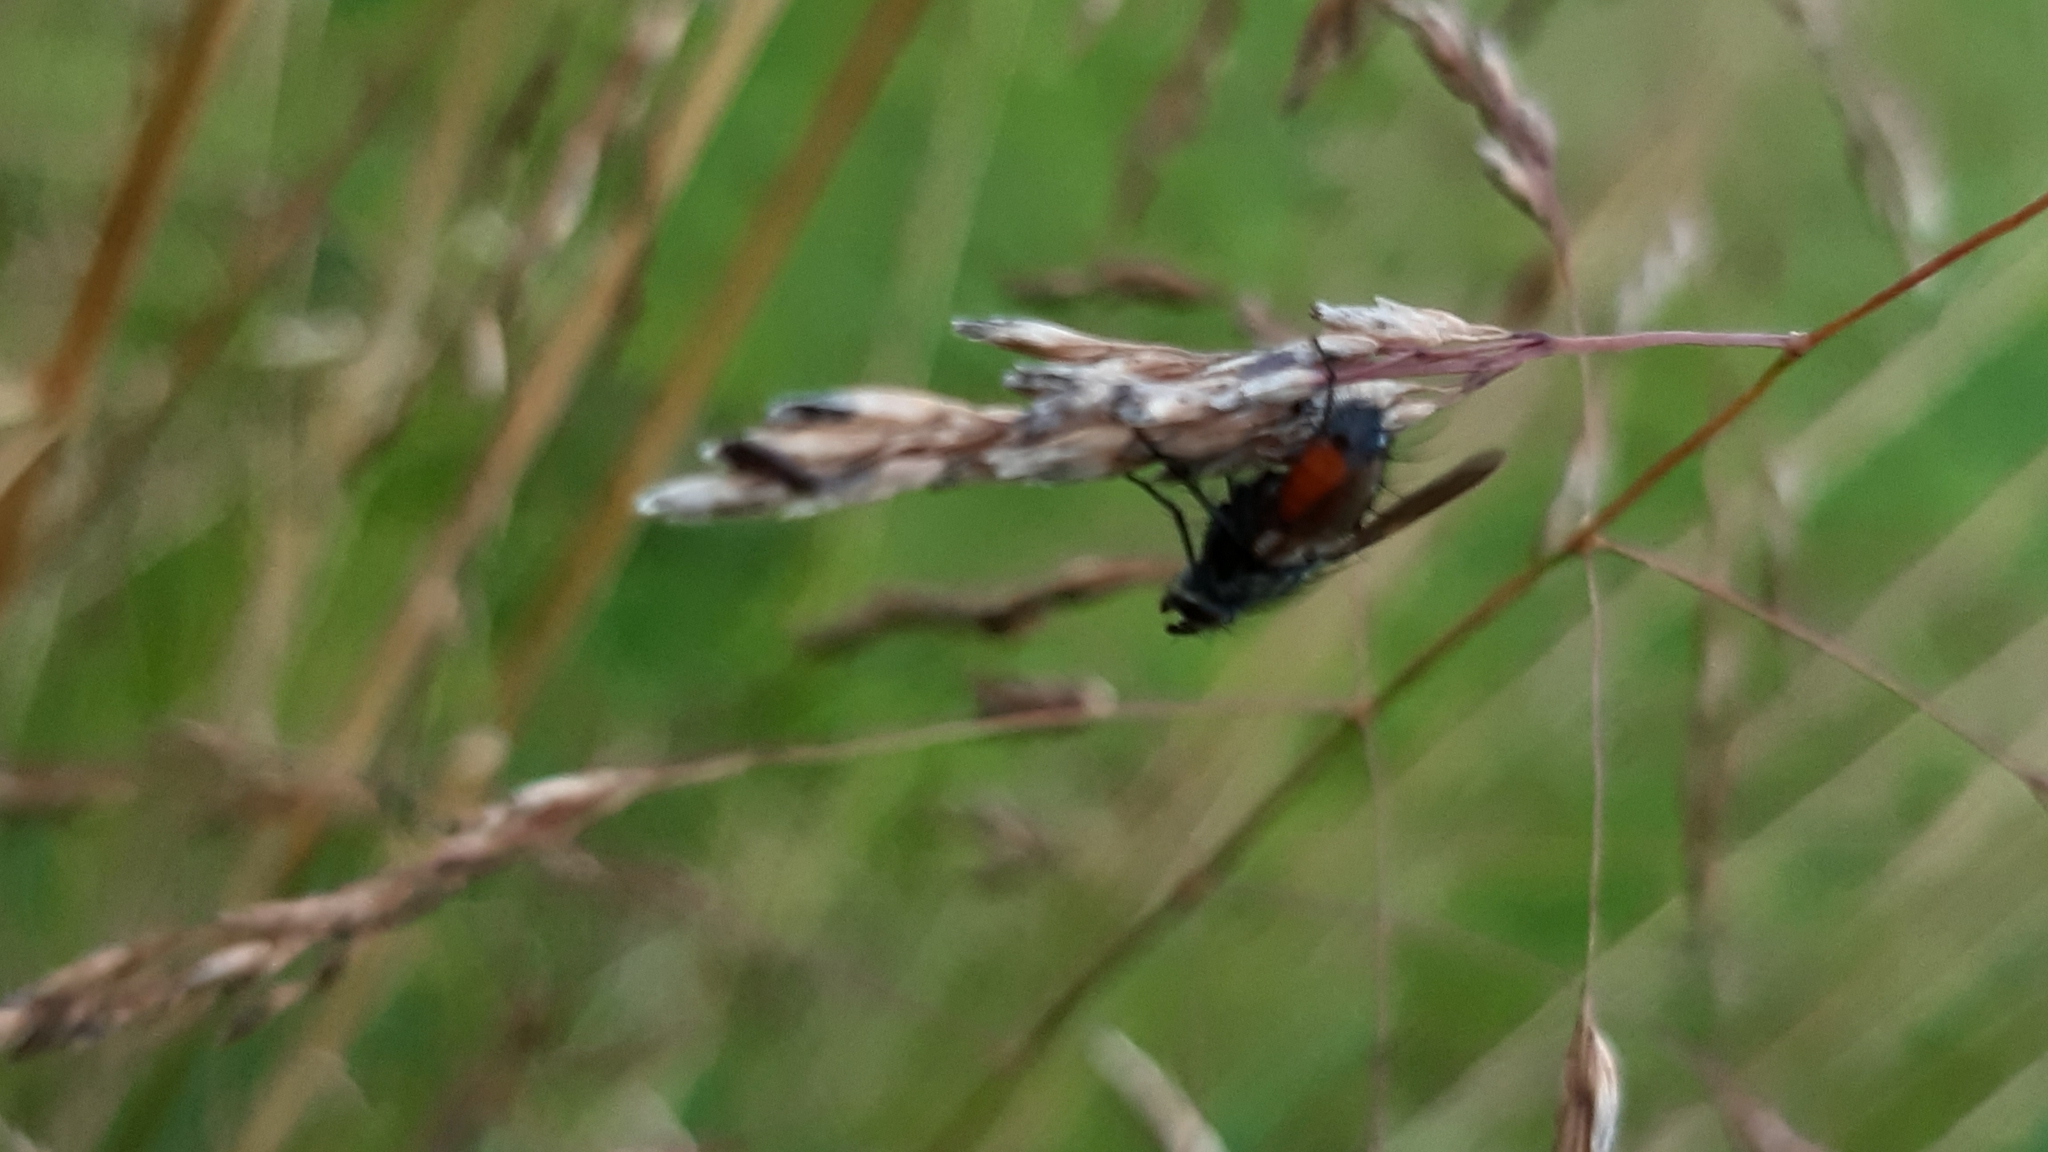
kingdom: Animalia
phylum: Arthropoda
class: Insecta
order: Diptera
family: Tachinidae
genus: Eriothrix
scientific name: Eriothrix rufomaculatus
